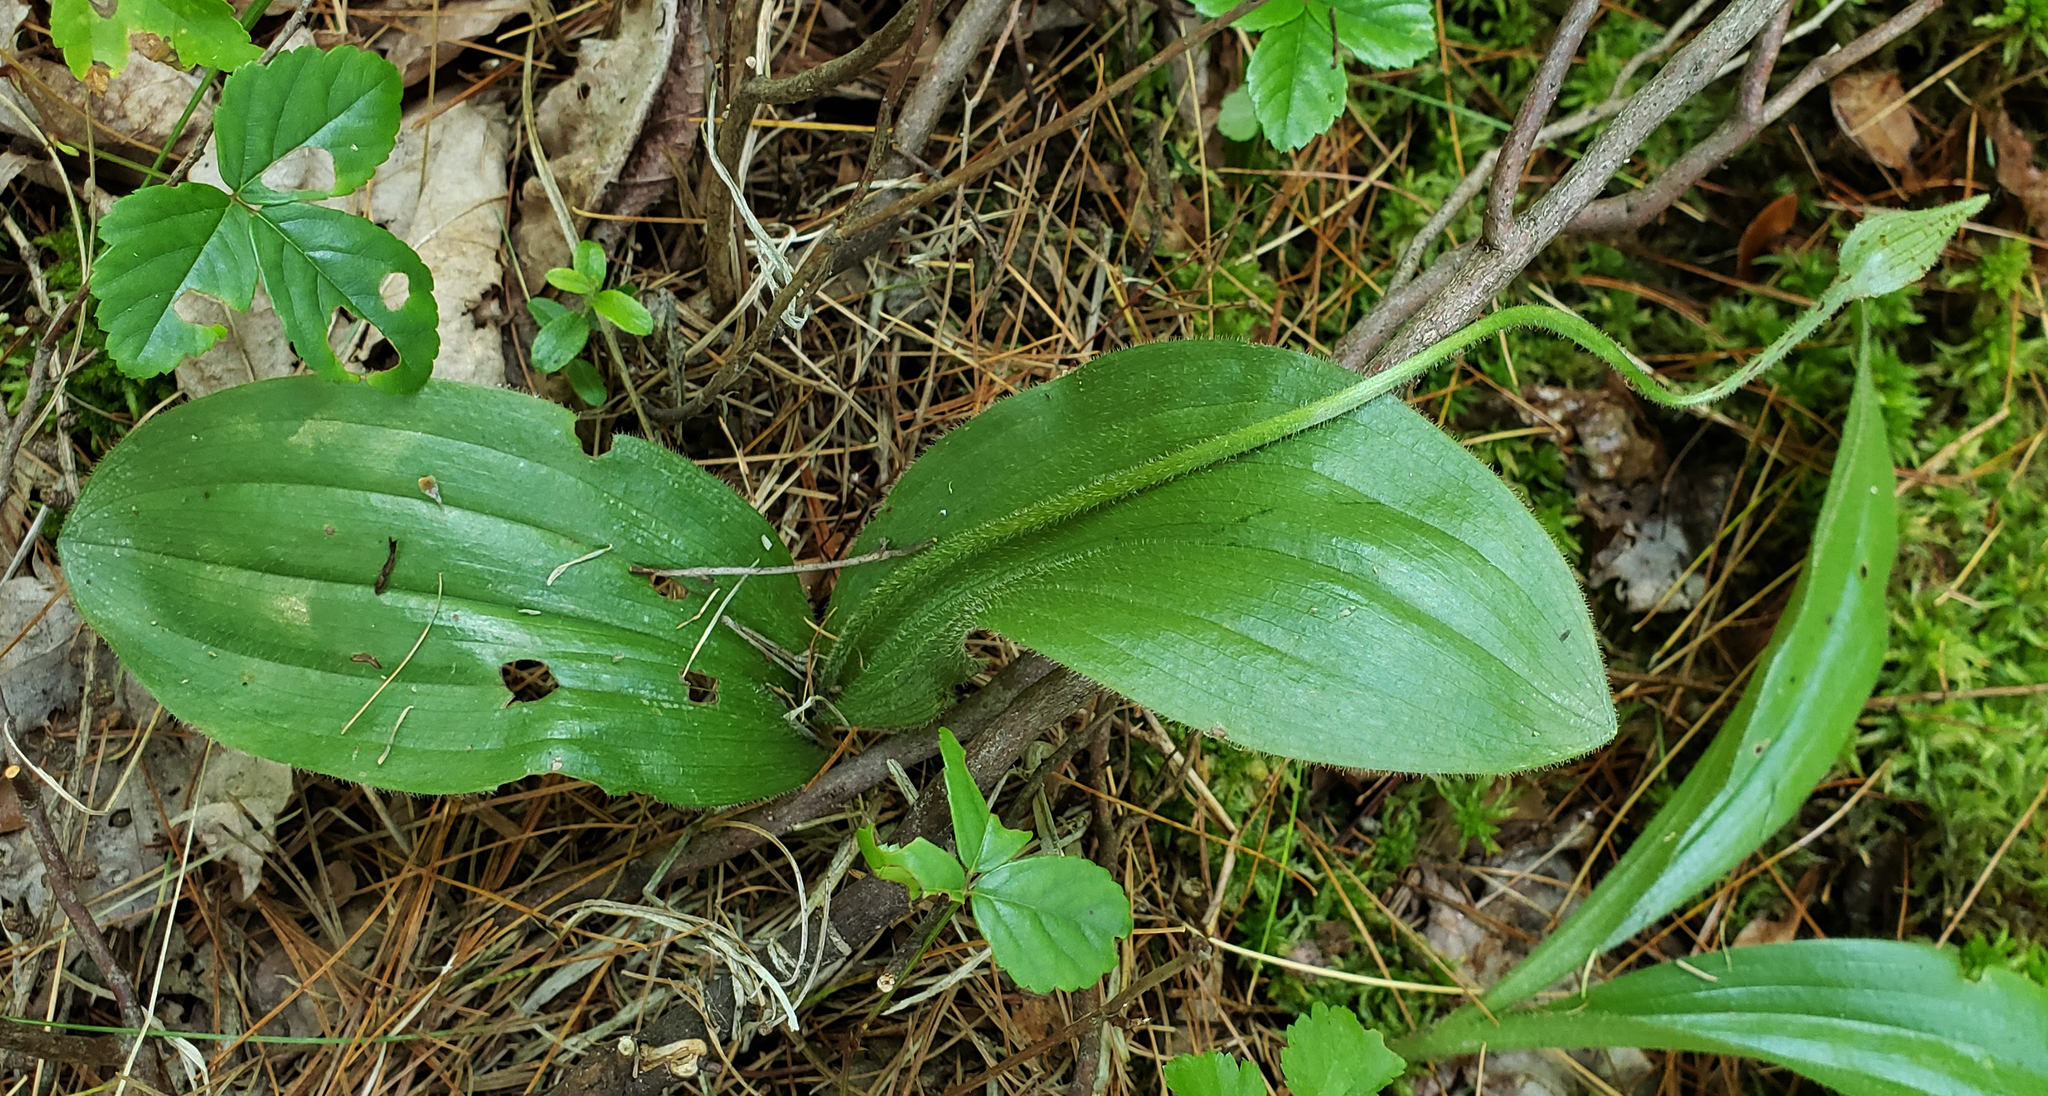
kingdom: Plantae
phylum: Tracheophyta
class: Liliopsida
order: Asparagales
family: Orchidaceae
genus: Cypripedium
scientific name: Cypripedium acaule
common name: Pink lady's-slipper
